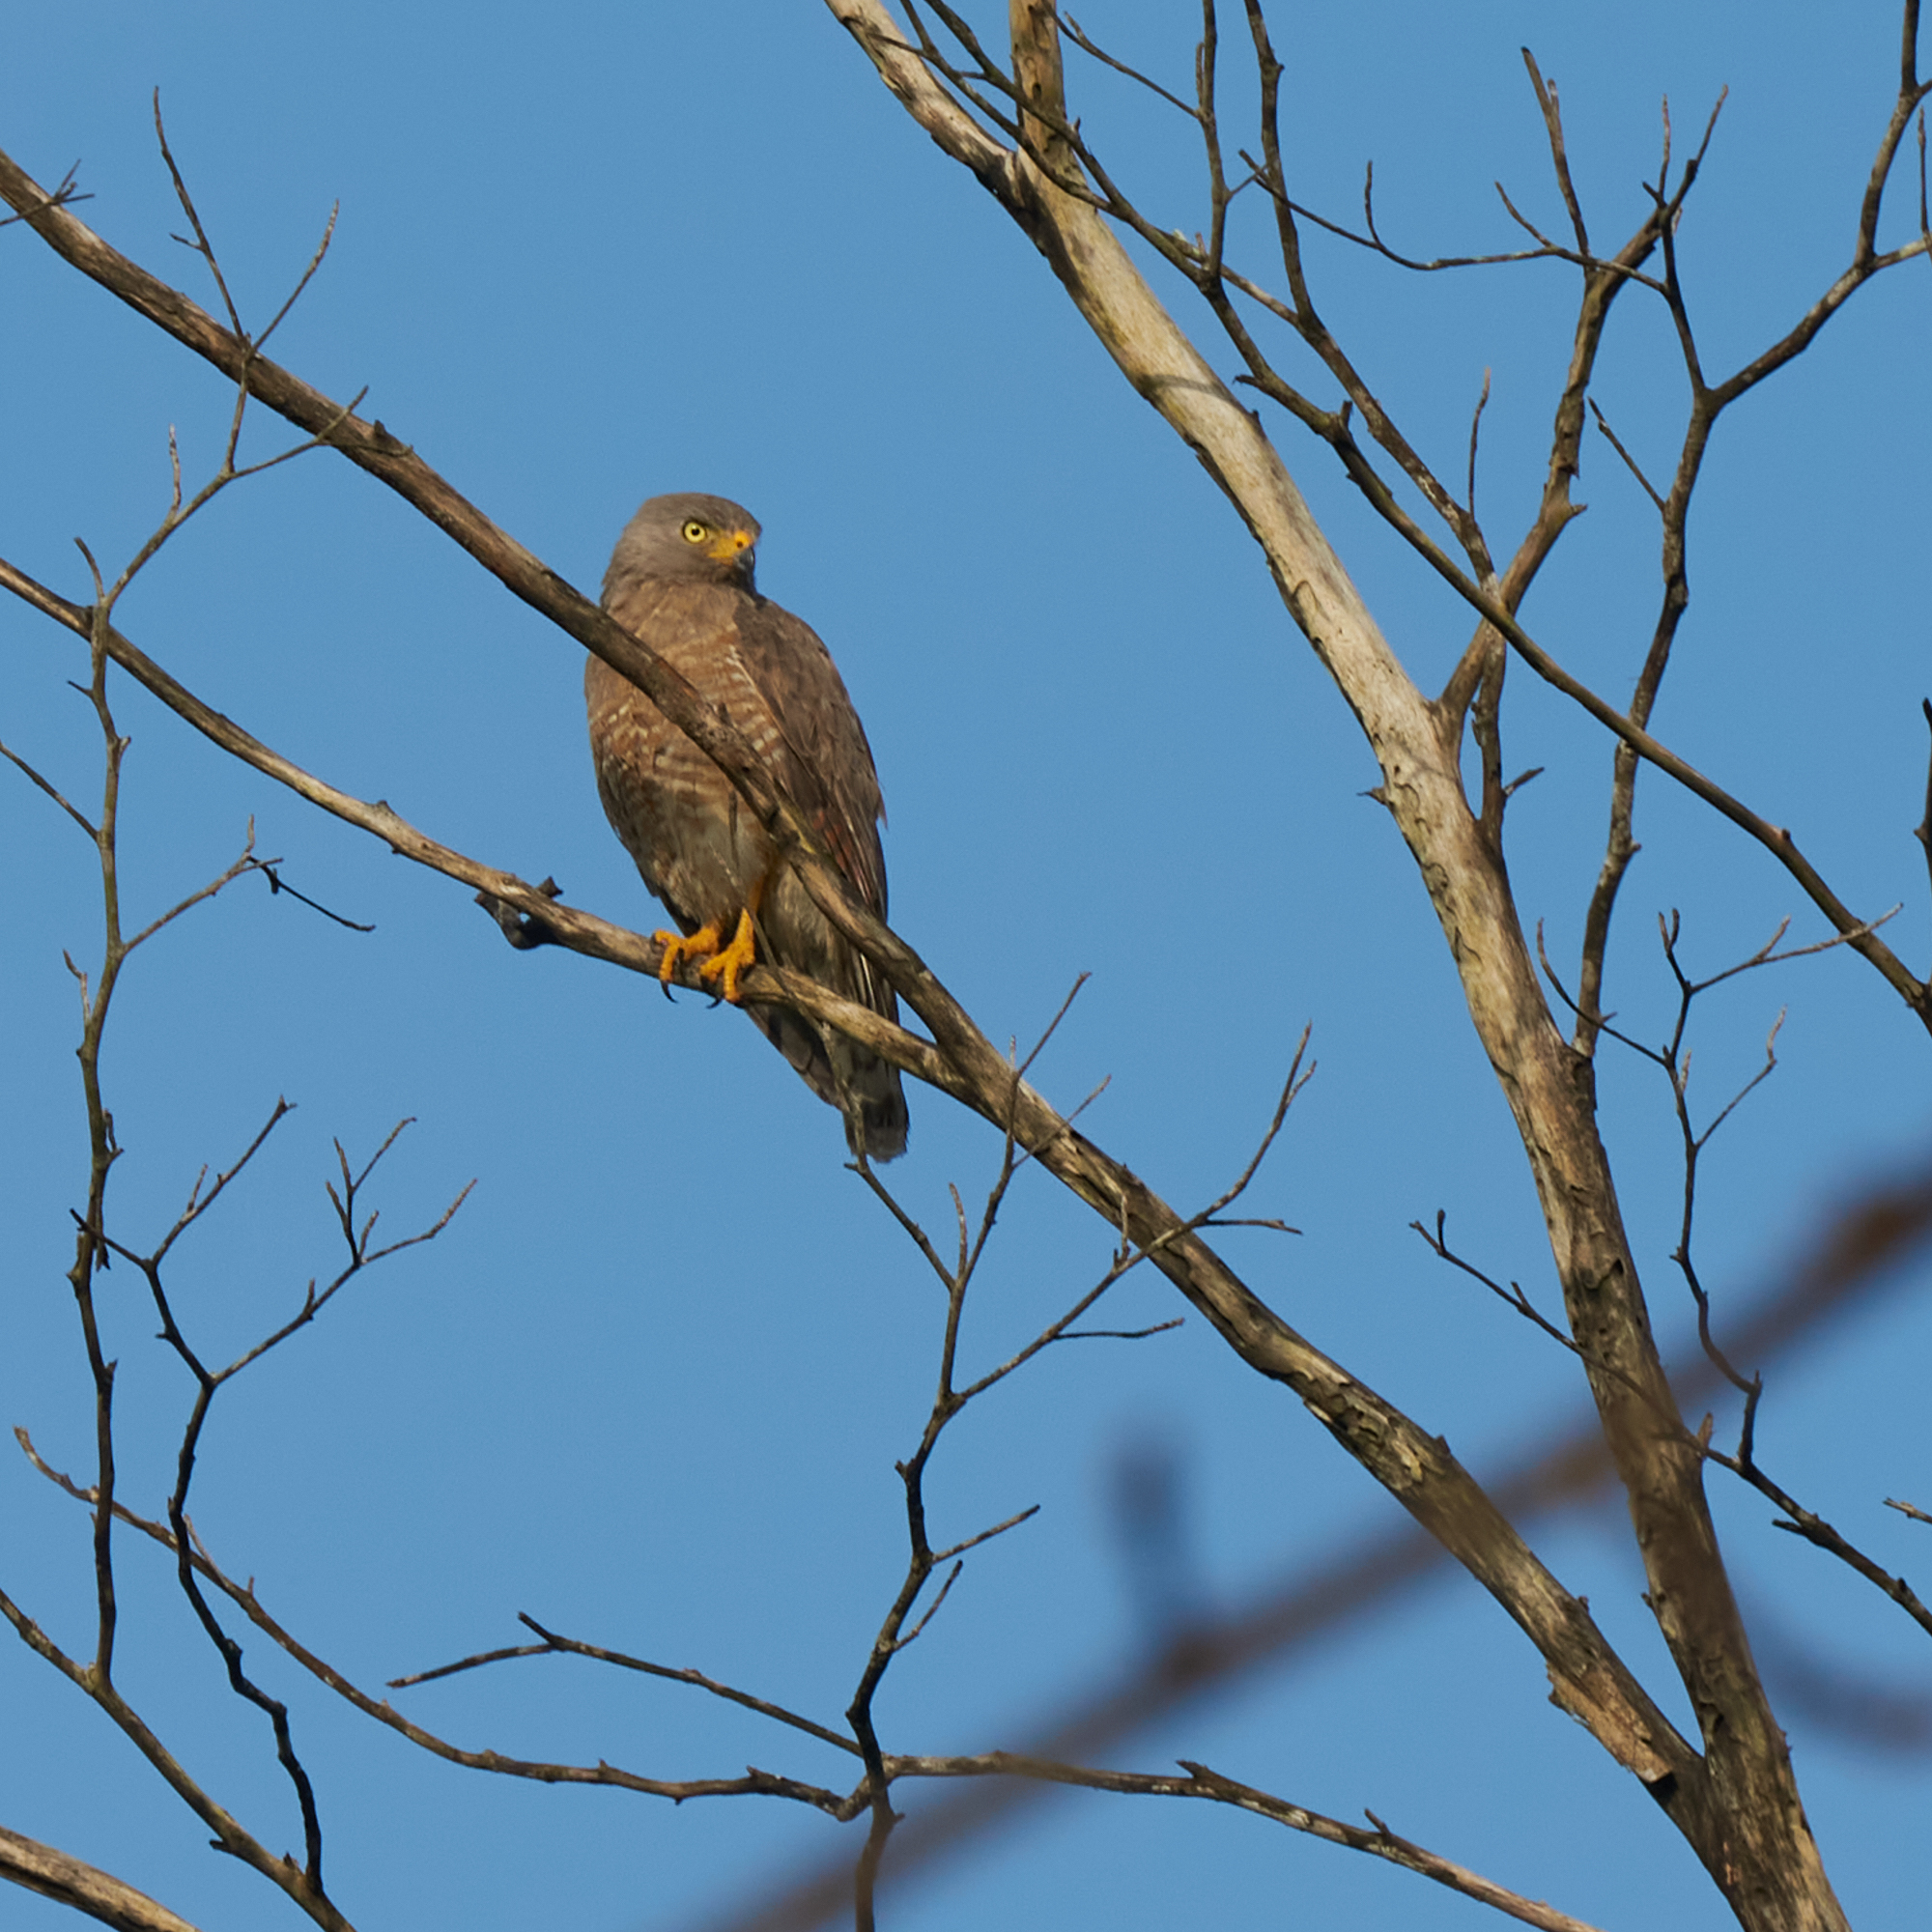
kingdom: Animalia
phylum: Chordata
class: Aves
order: Accipitriformes
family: Accipitridae
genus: Rupornis
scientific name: Rupornis magnirostris
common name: Roadside hawk
